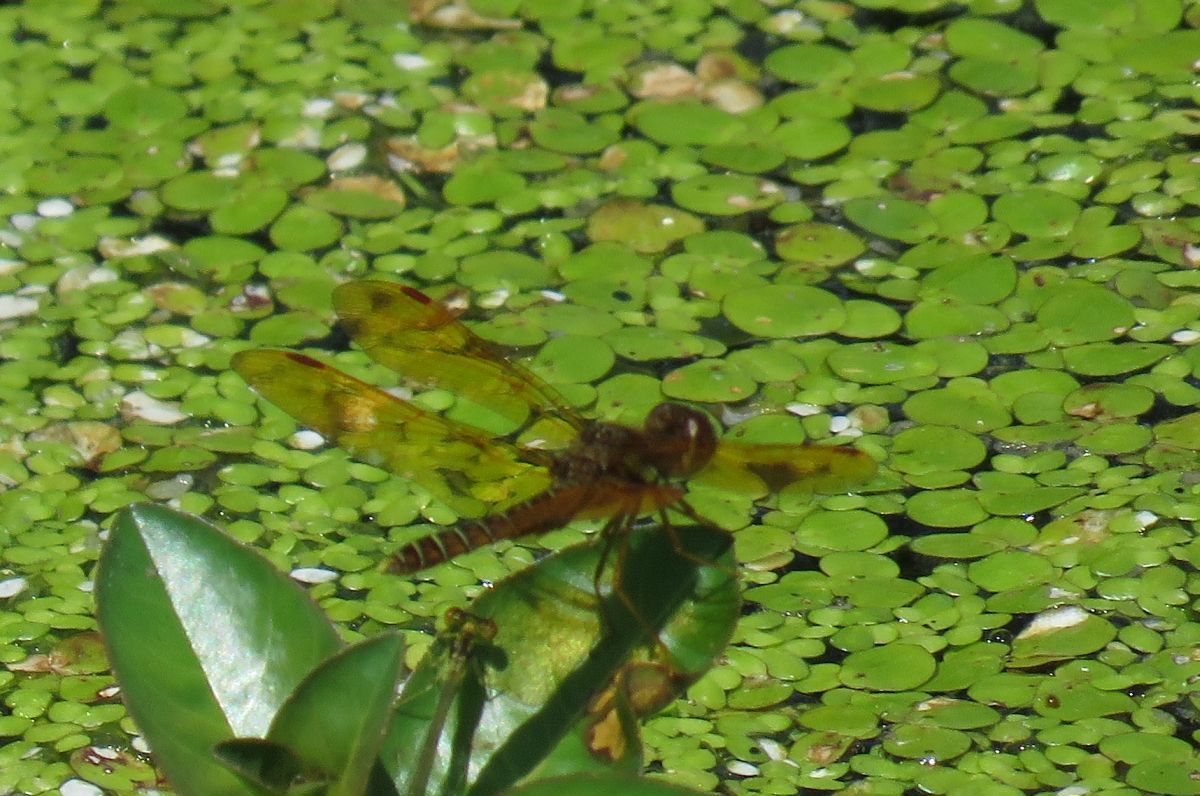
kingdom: Animalia
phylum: Arthropoda
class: Insecta
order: Odonata
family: Libellulidae
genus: Perithemis
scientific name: Perithemis tenera
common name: Eastern amberwing
